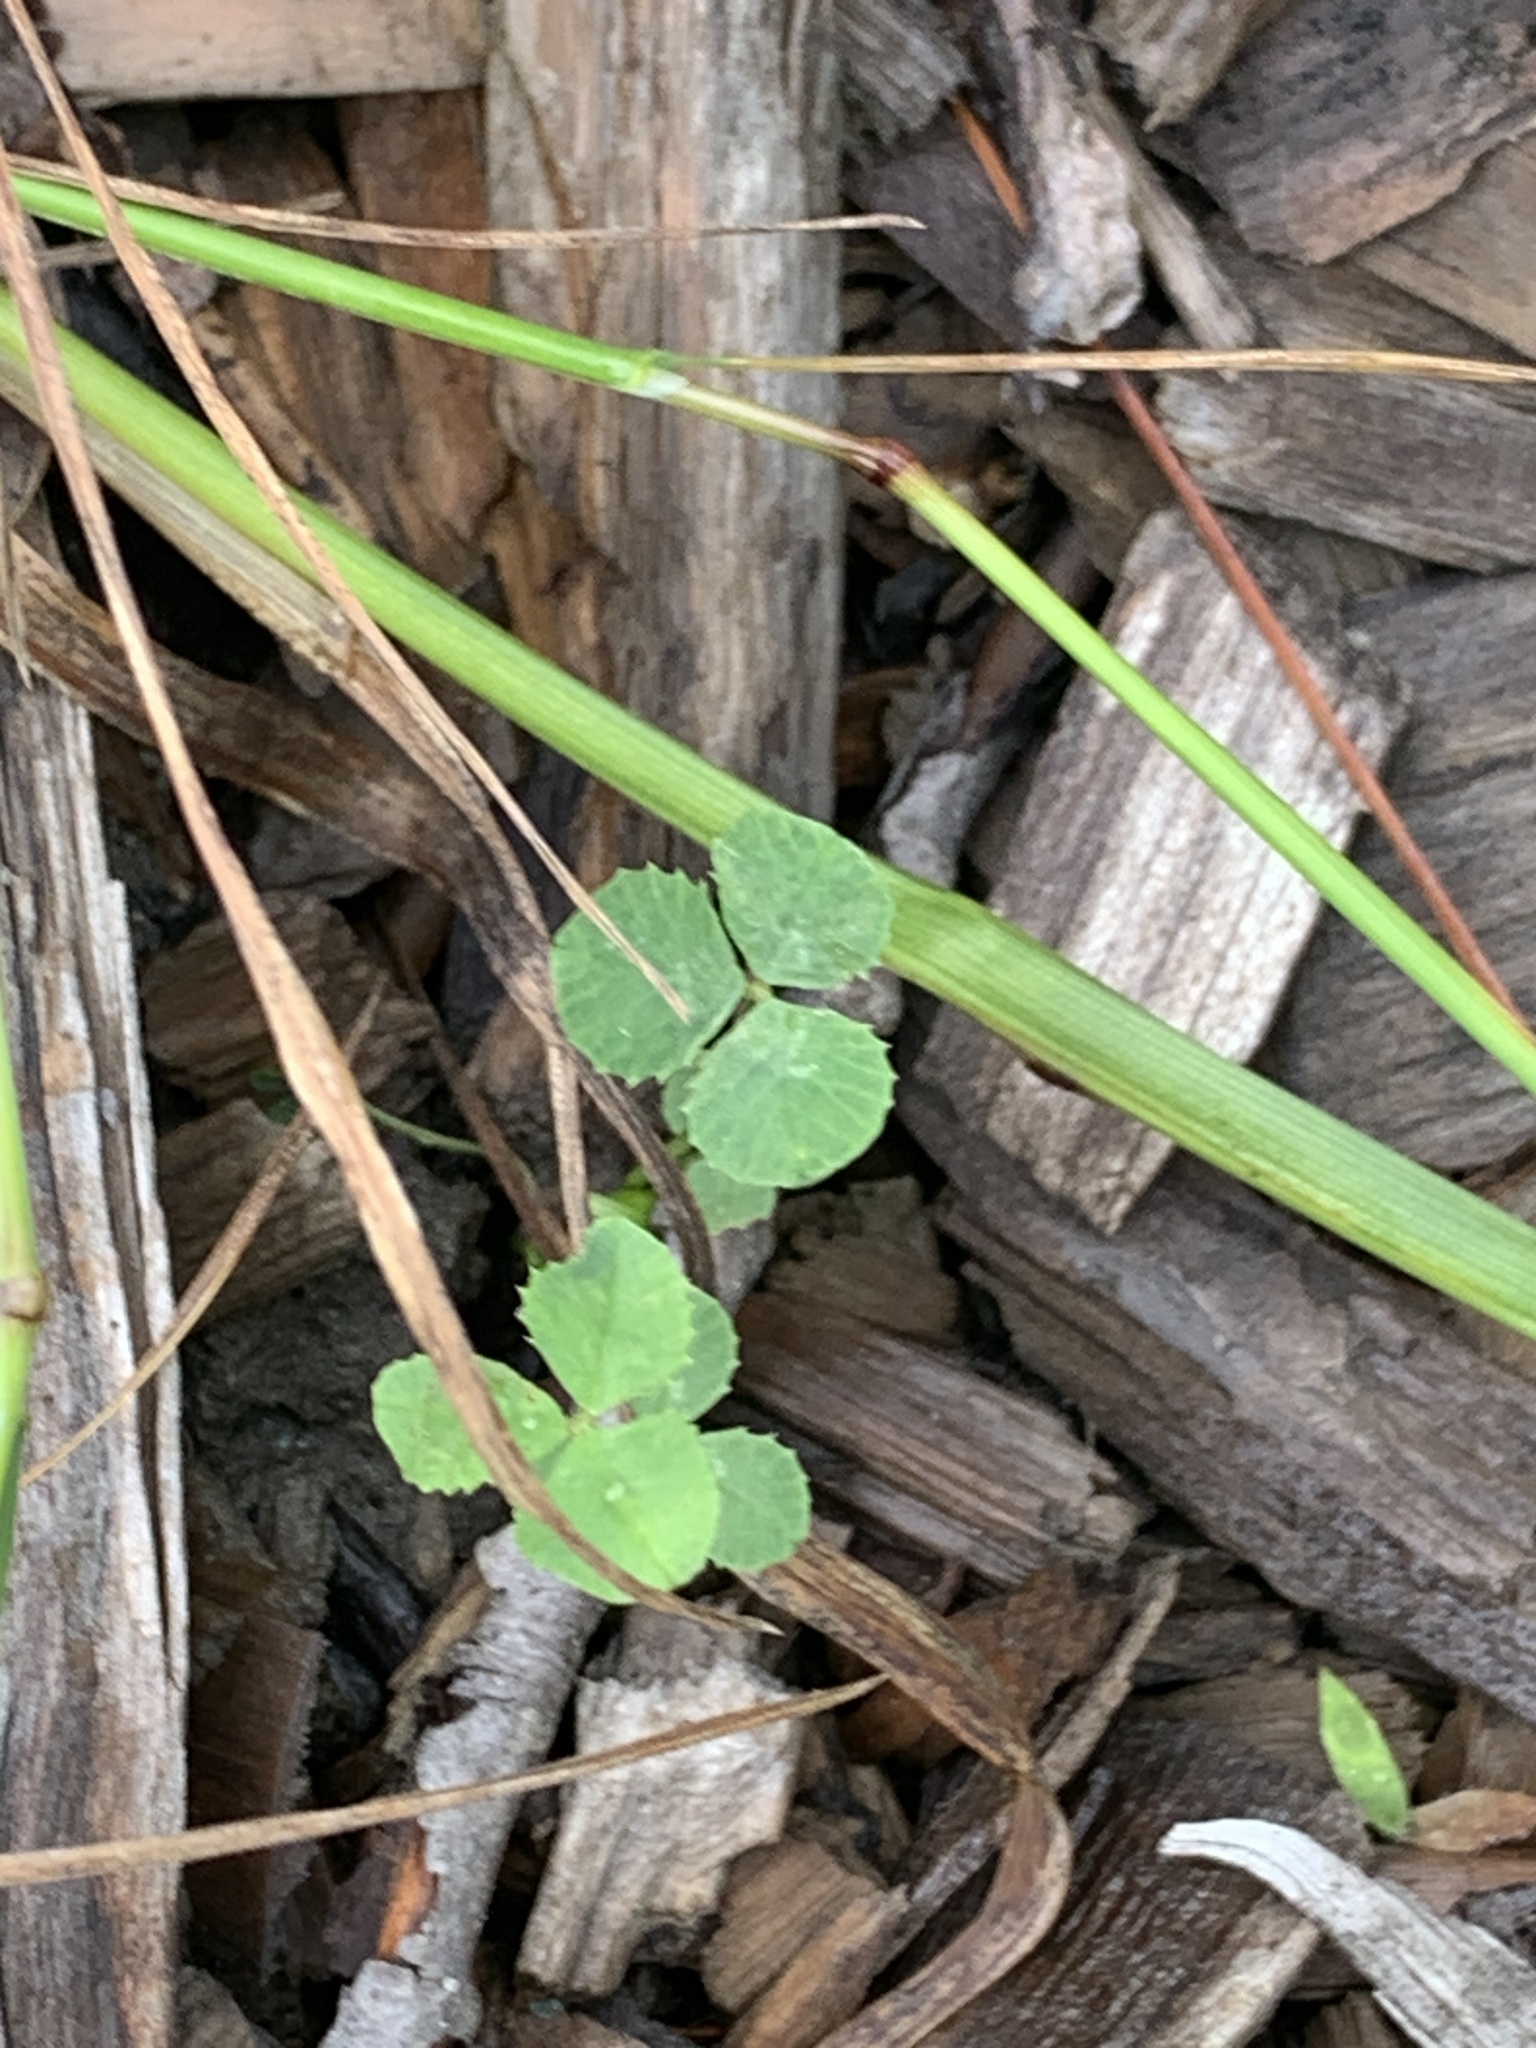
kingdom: Plantae
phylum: Tracheophyta
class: Magnoliopsida
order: Fabales
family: Fabaceae
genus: Trifolium
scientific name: Trifolium repens
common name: White clover
